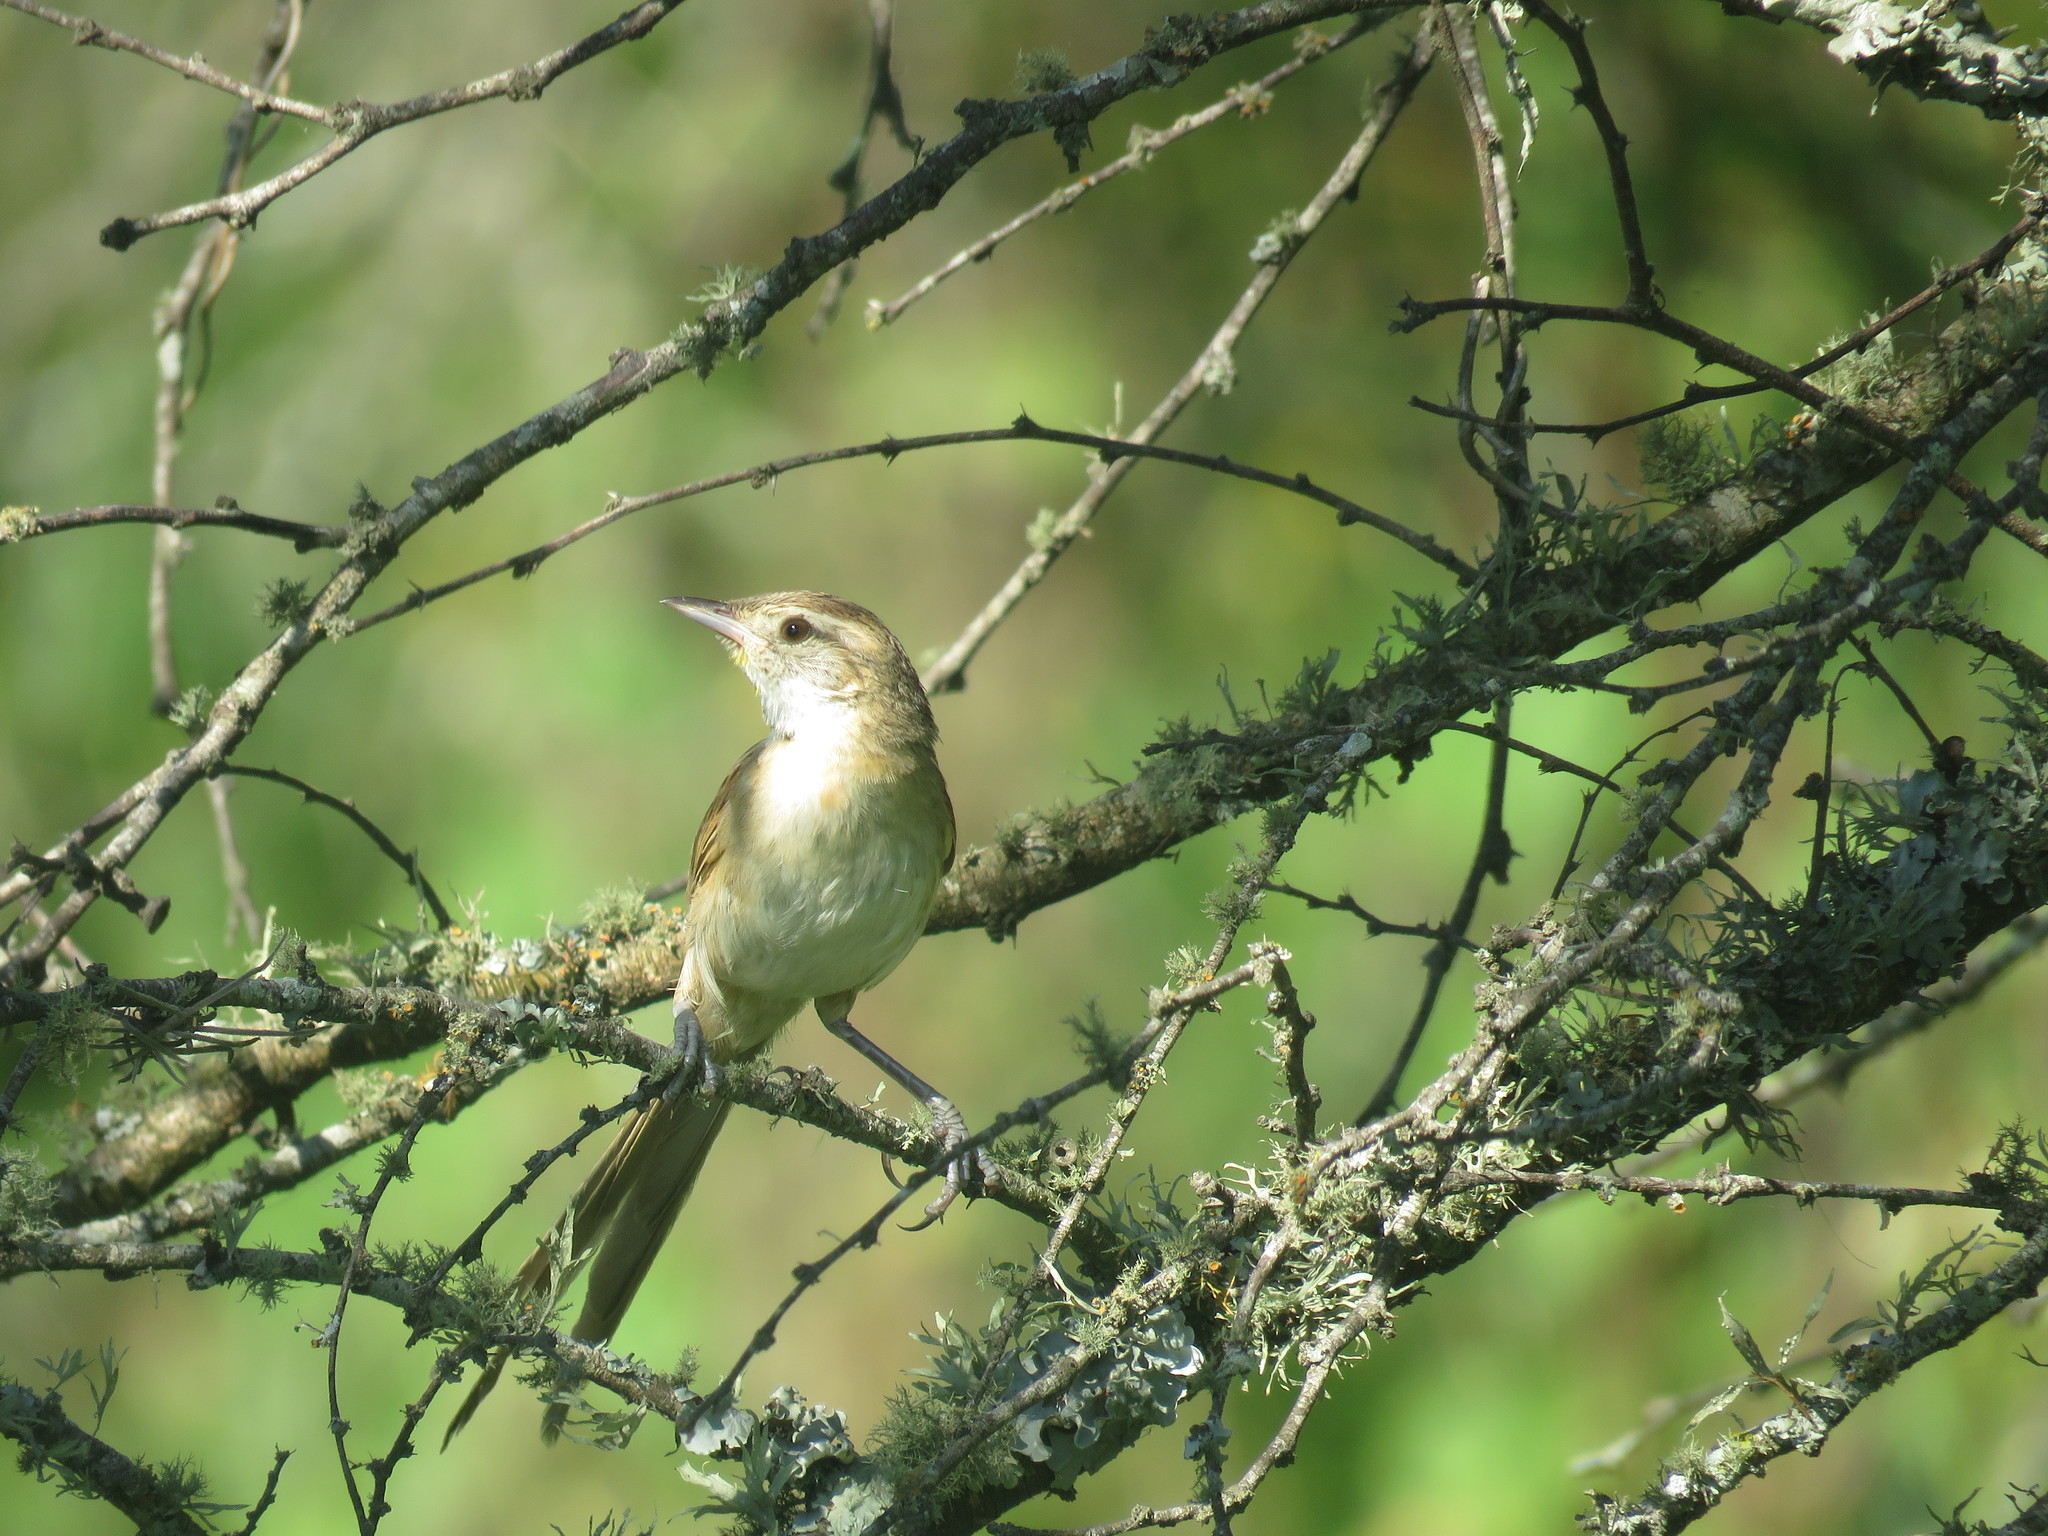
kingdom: Animalia
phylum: Chordata
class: Aves
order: Passeriformes
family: Furnariidae
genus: Schoeniophylax
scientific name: Schoeniophylax phryganophilus
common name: Chotoy spinetail
